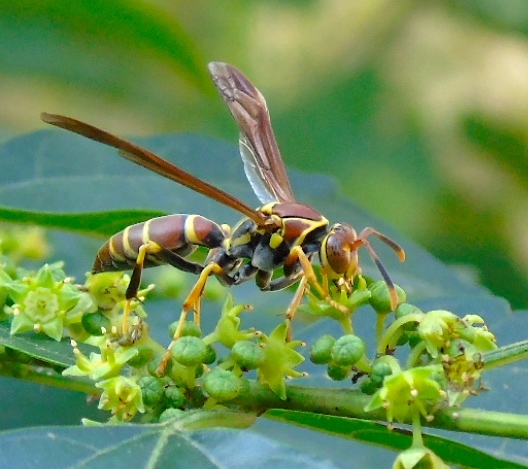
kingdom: Animalia
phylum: Arthropoda
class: Insecta
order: Hymenoptera
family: Eumenidae
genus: Polistes
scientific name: Polistes instabilis
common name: Unstable paper wasp
